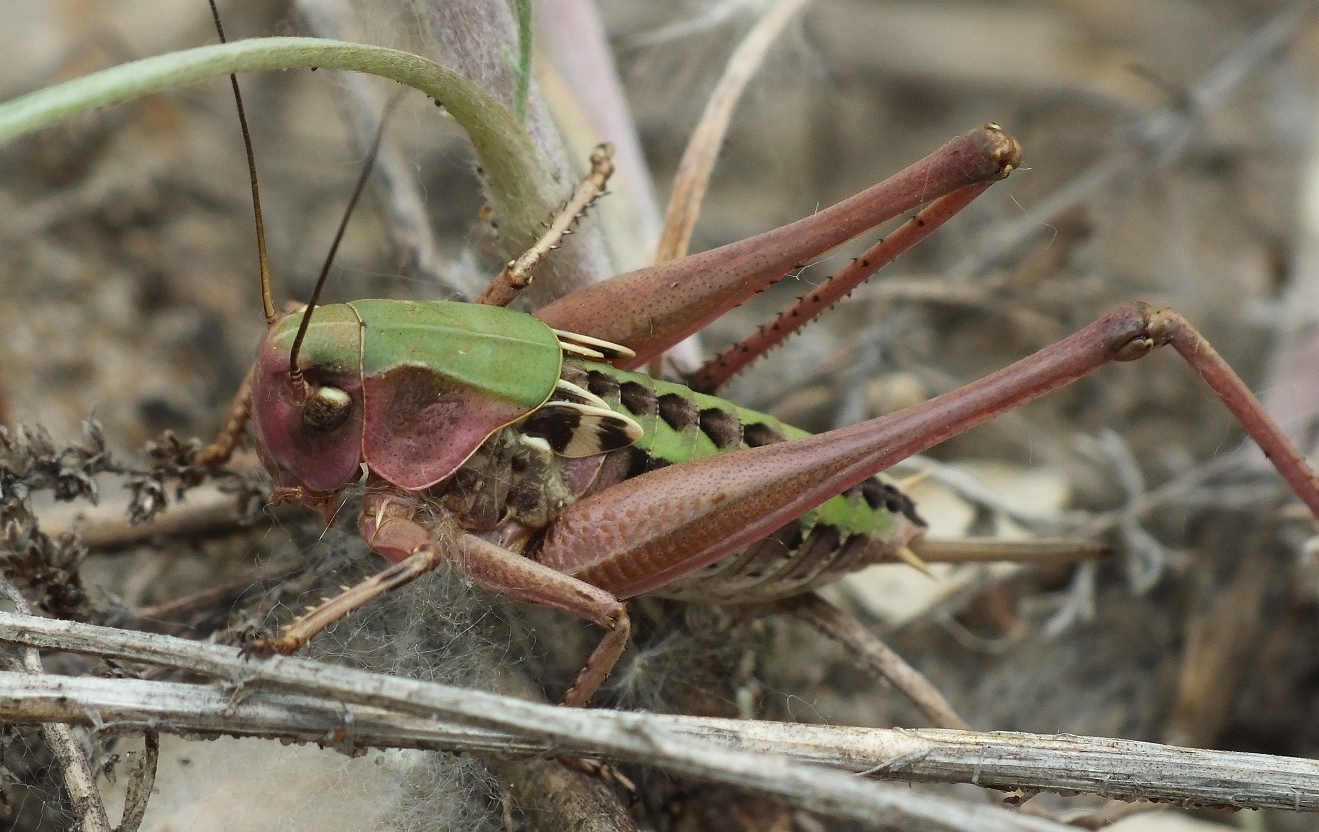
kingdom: Animalia
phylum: Arthropoda
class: Insecta
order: Orthoptera
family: Tettigoniidae
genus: Decticus
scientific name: Decticus verrucivorus
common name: Wart-biter
